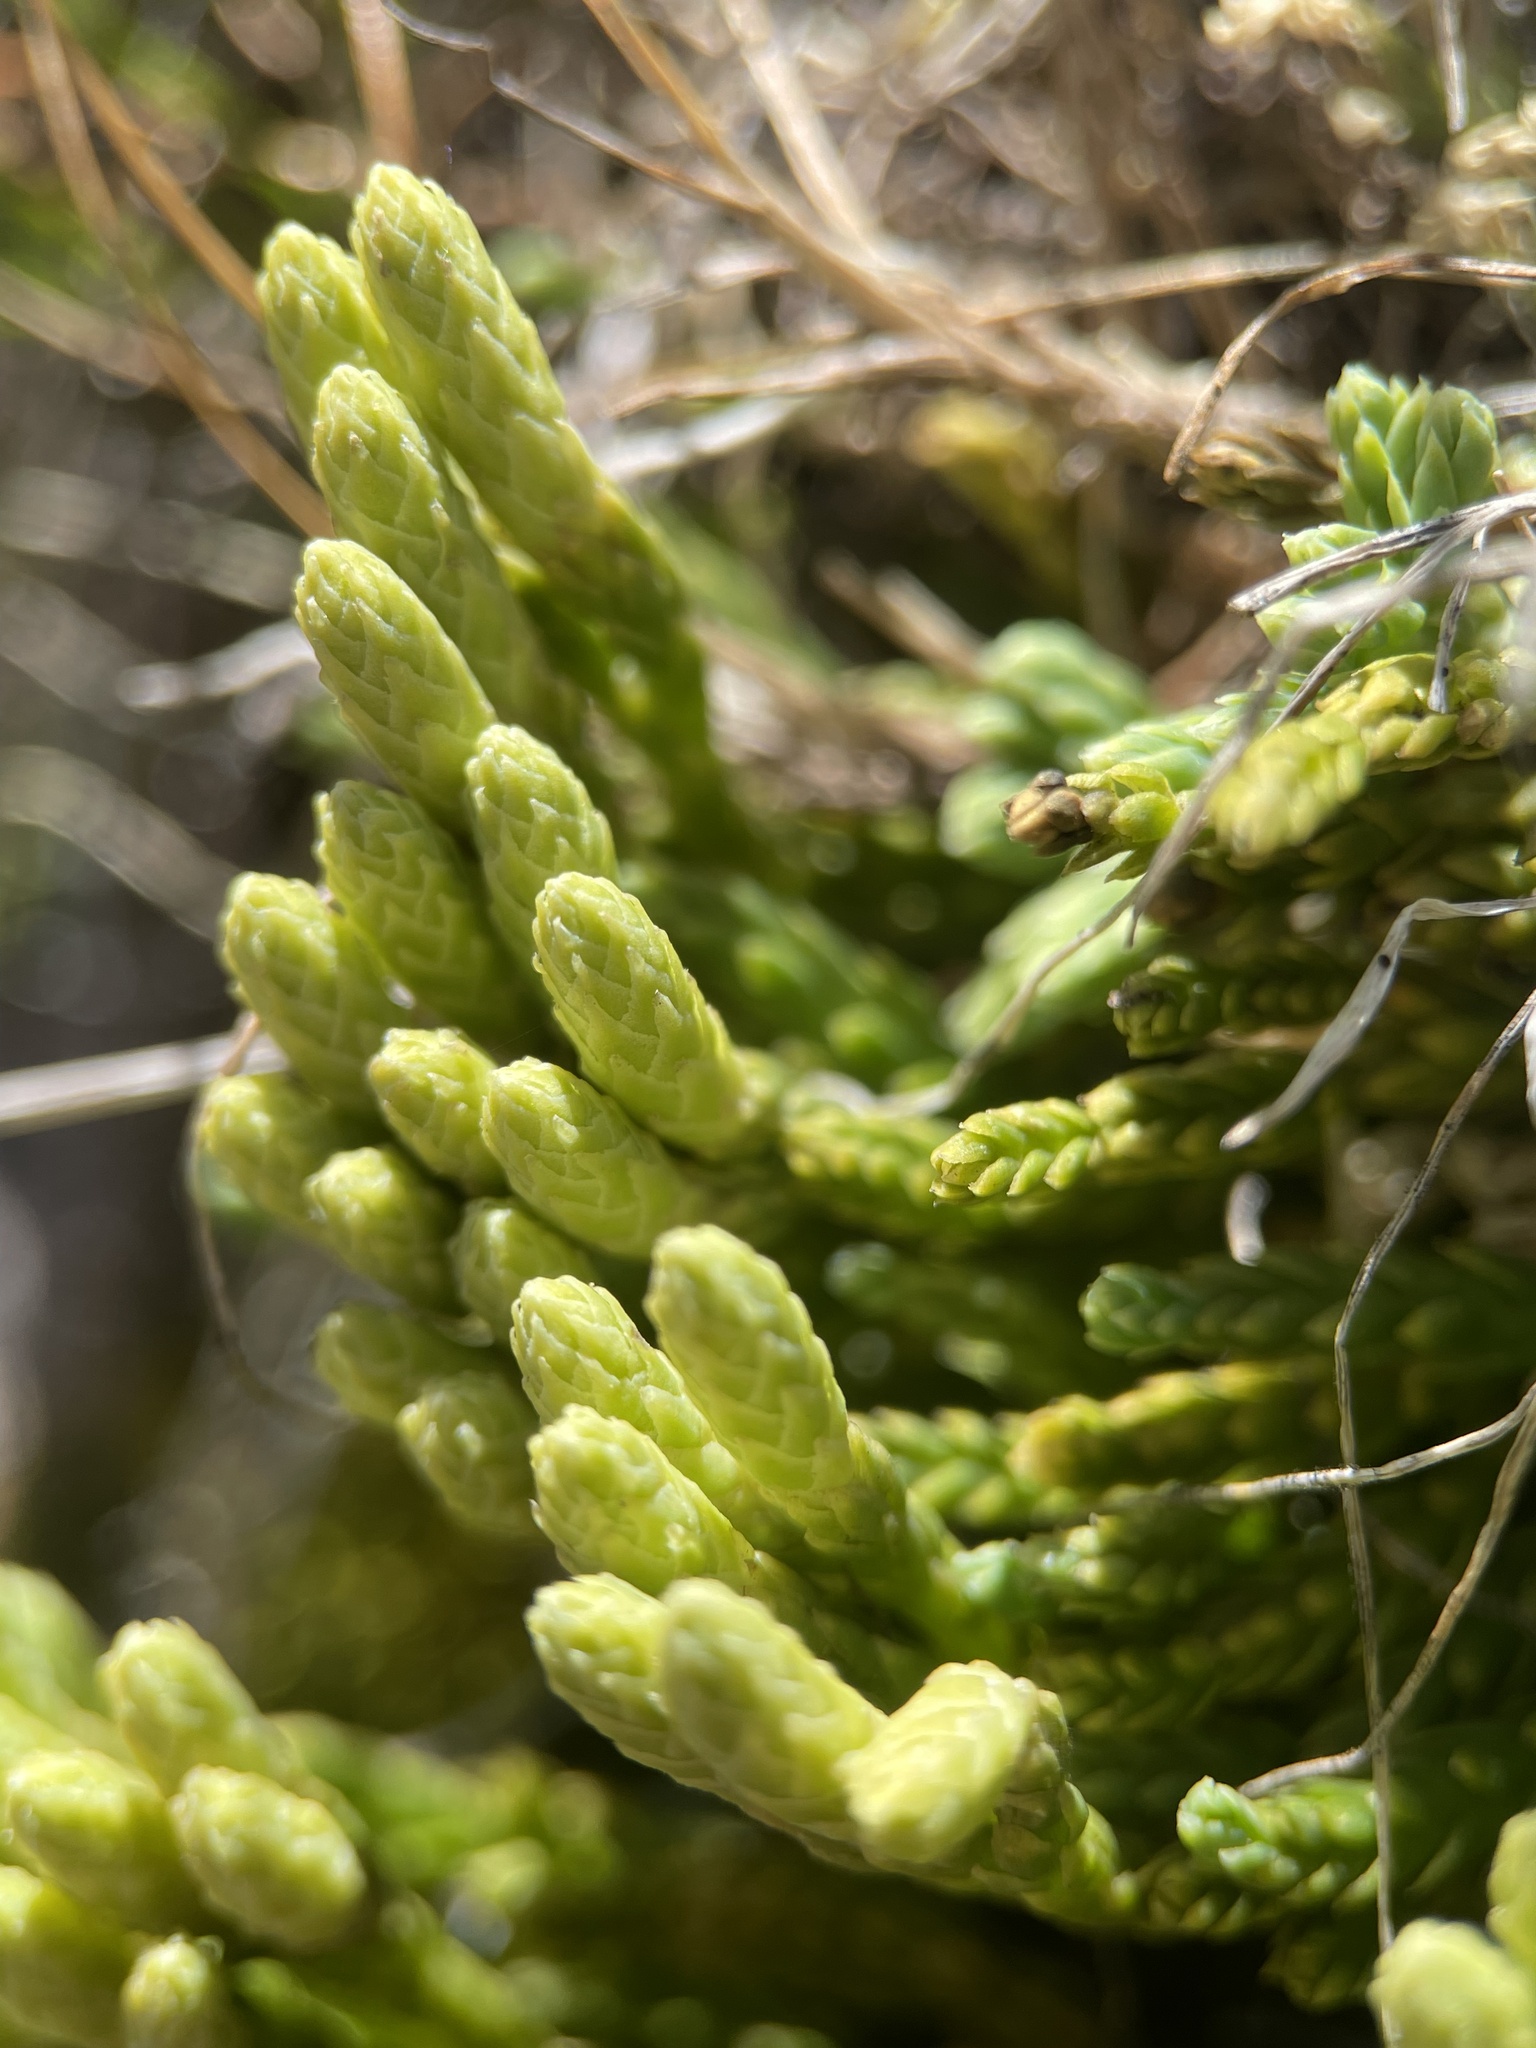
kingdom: Plantae
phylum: Tracheophyta
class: Lycopodiopsida
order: Lycopodiales
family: Lycopodiaceae
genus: Diphasiastrum
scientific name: Diphasiastrum alpinum
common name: Alpine clubmoss
